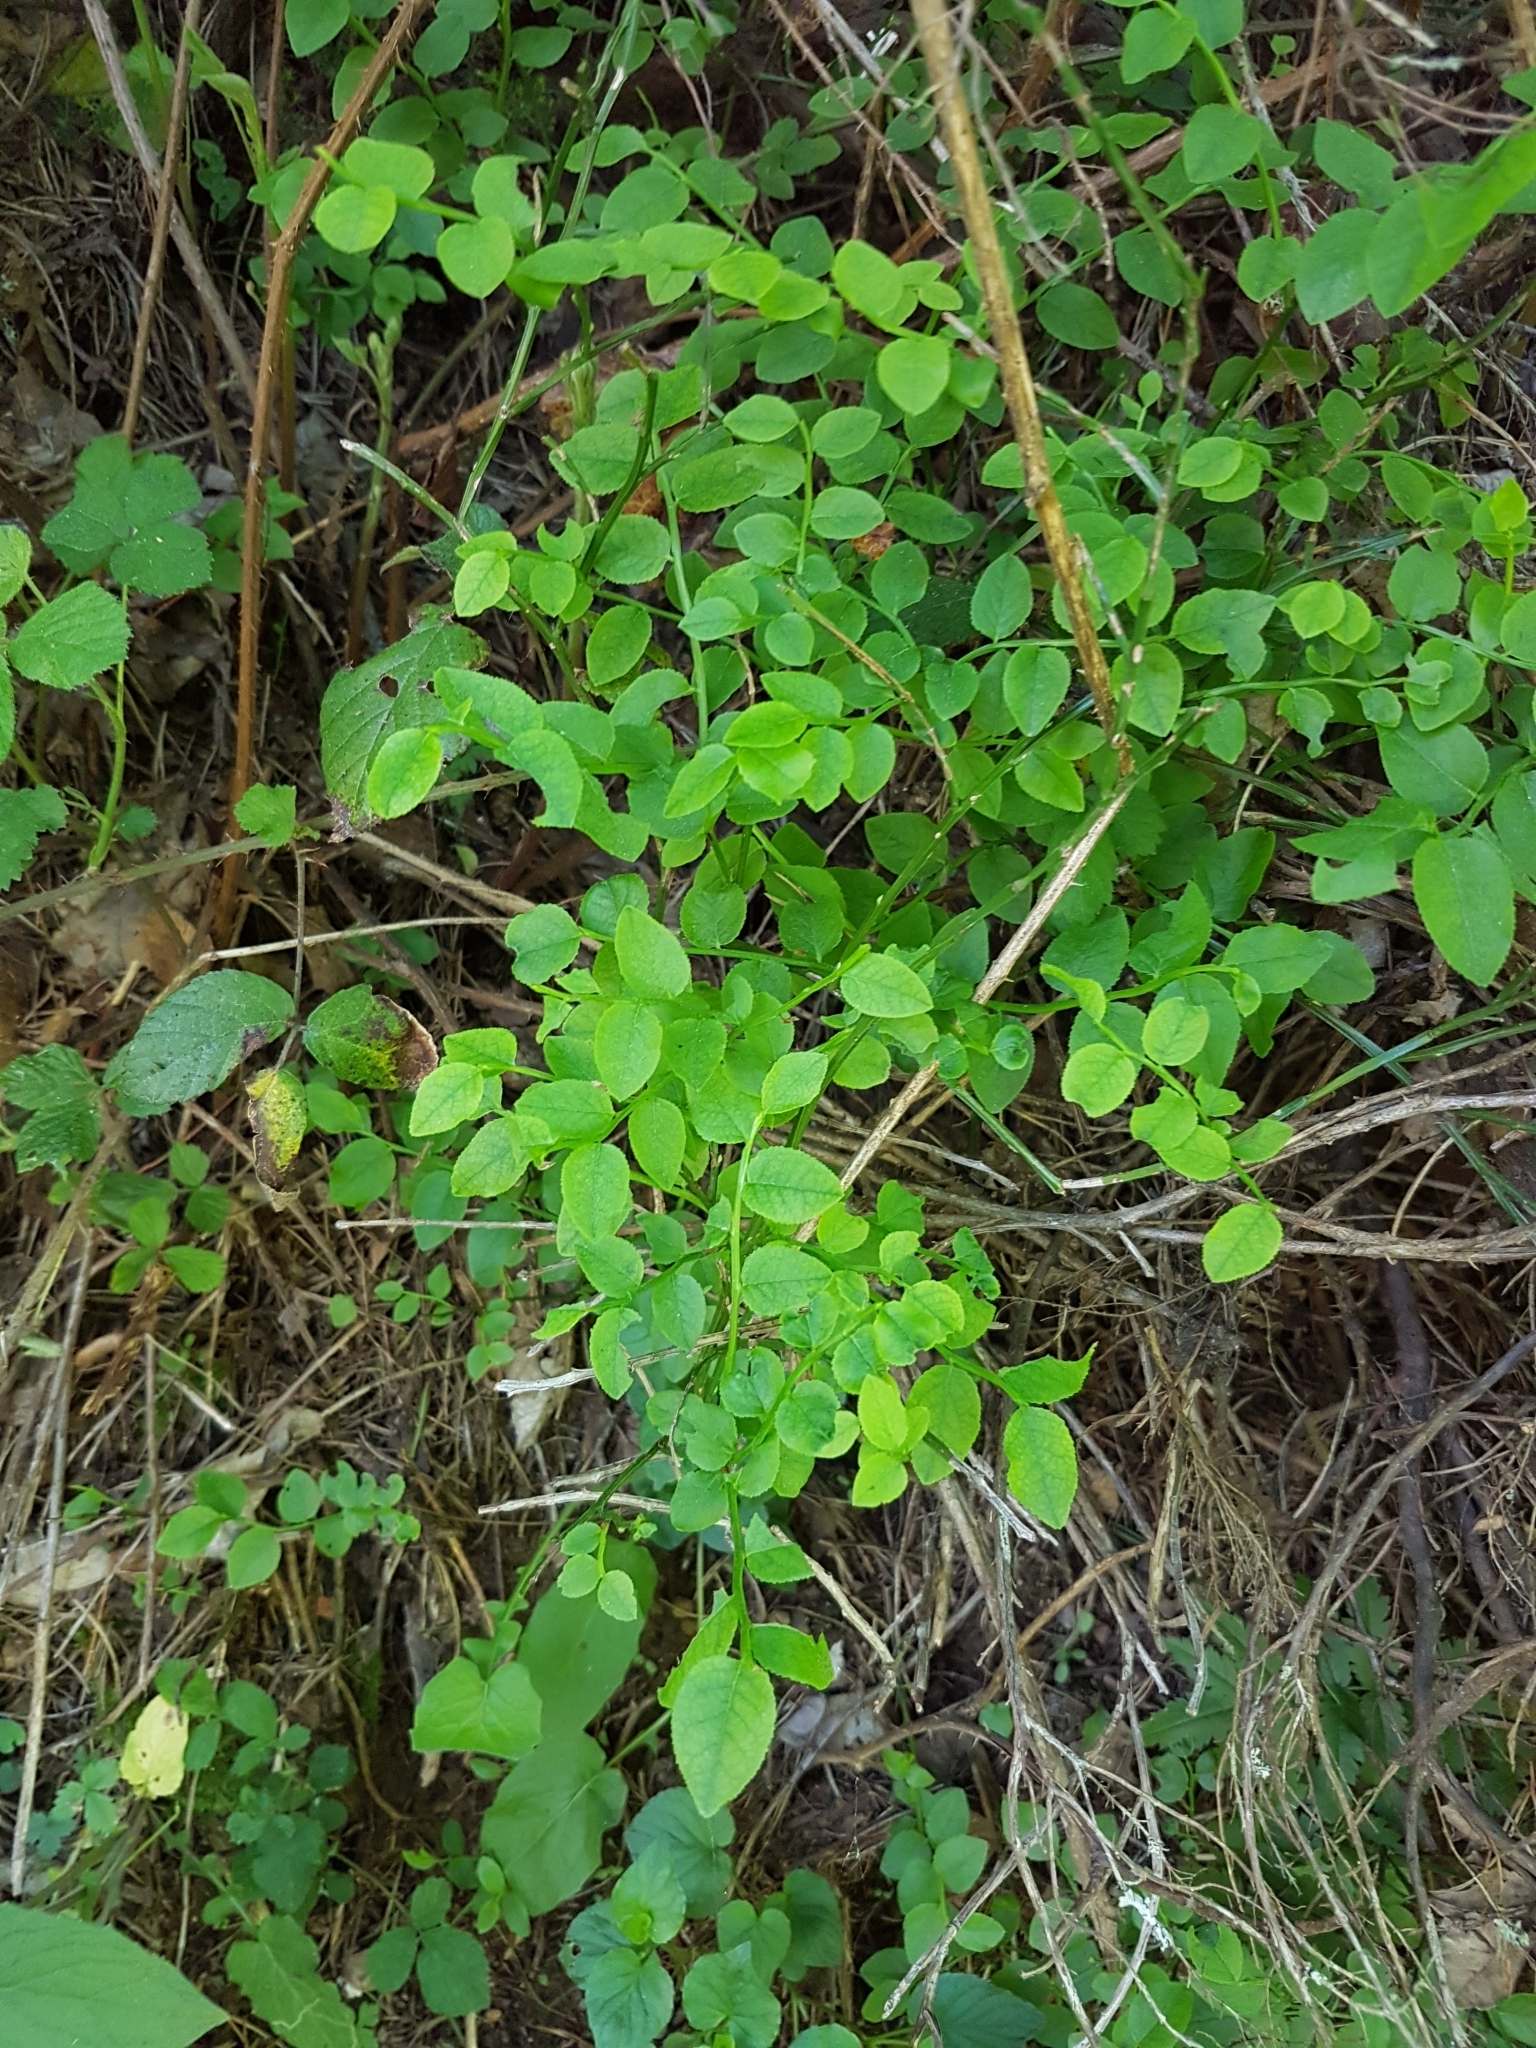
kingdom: Plantae
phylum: Tracheophyta
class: Magnoliopsida
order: Ericales
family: Ericaceae
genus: Vaccinium
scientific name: Vaccinium myrtillus
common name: Bilberry
